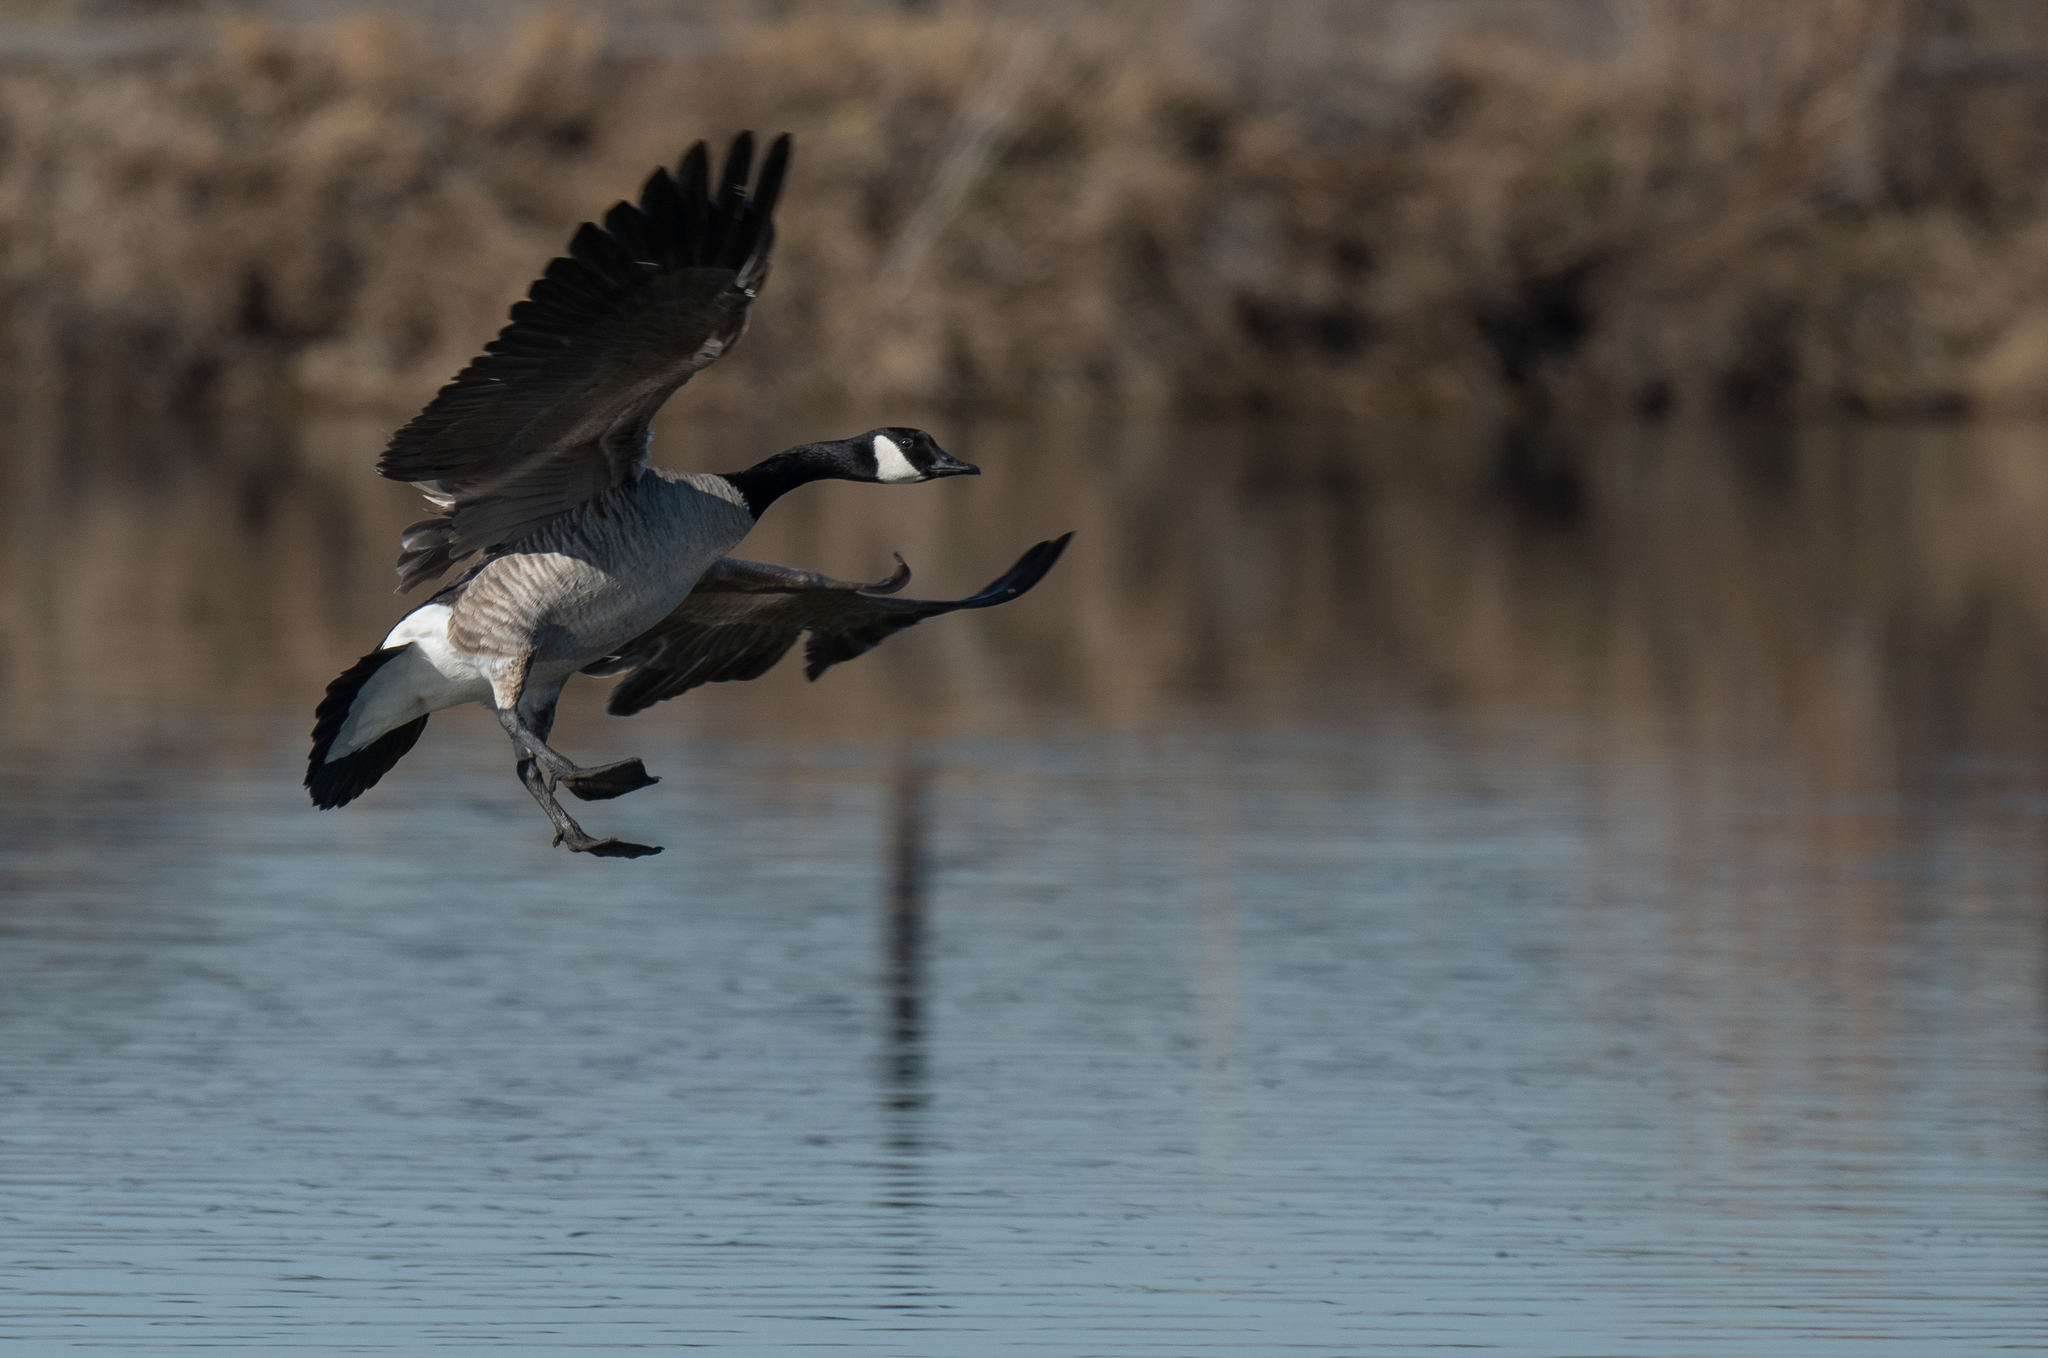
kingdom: Animalia
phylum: Chordata
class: Aves
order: Anseriformes
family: Anatidae
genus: Branta
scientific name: Branta canadensis
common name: Canada goose
